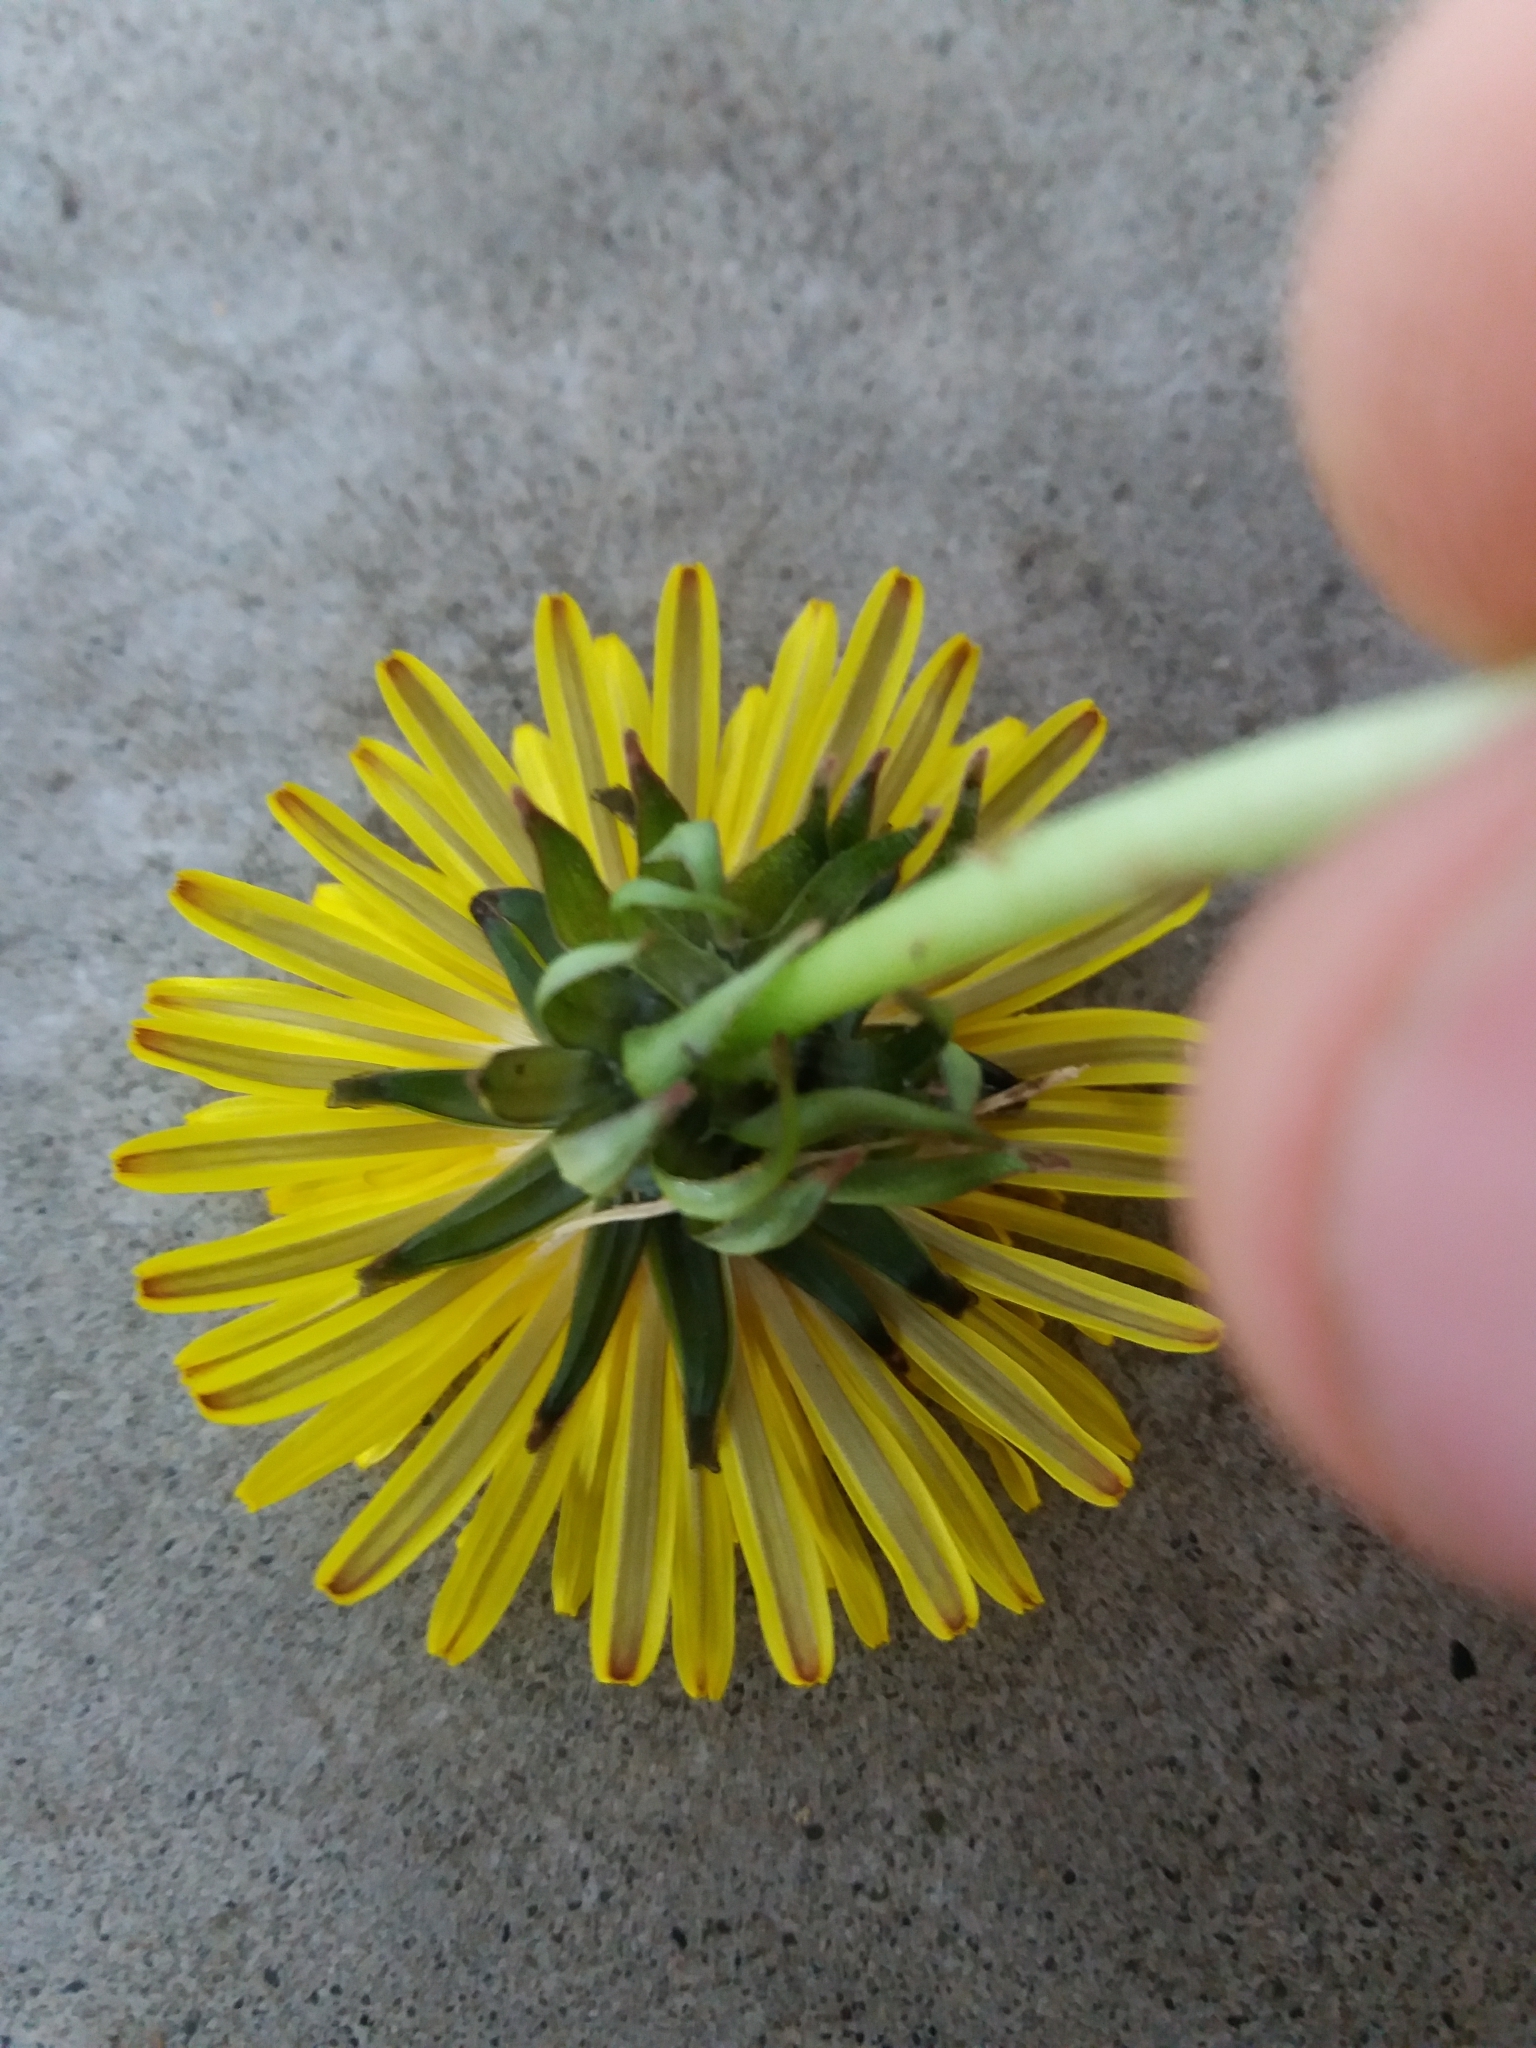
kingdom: Plantae
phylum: Tracheophyta
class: Magnoliopsida
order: Asterales
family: Asteraceae
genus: Taraxacum
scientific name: Taraxacum officinale
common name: Common dandelion
